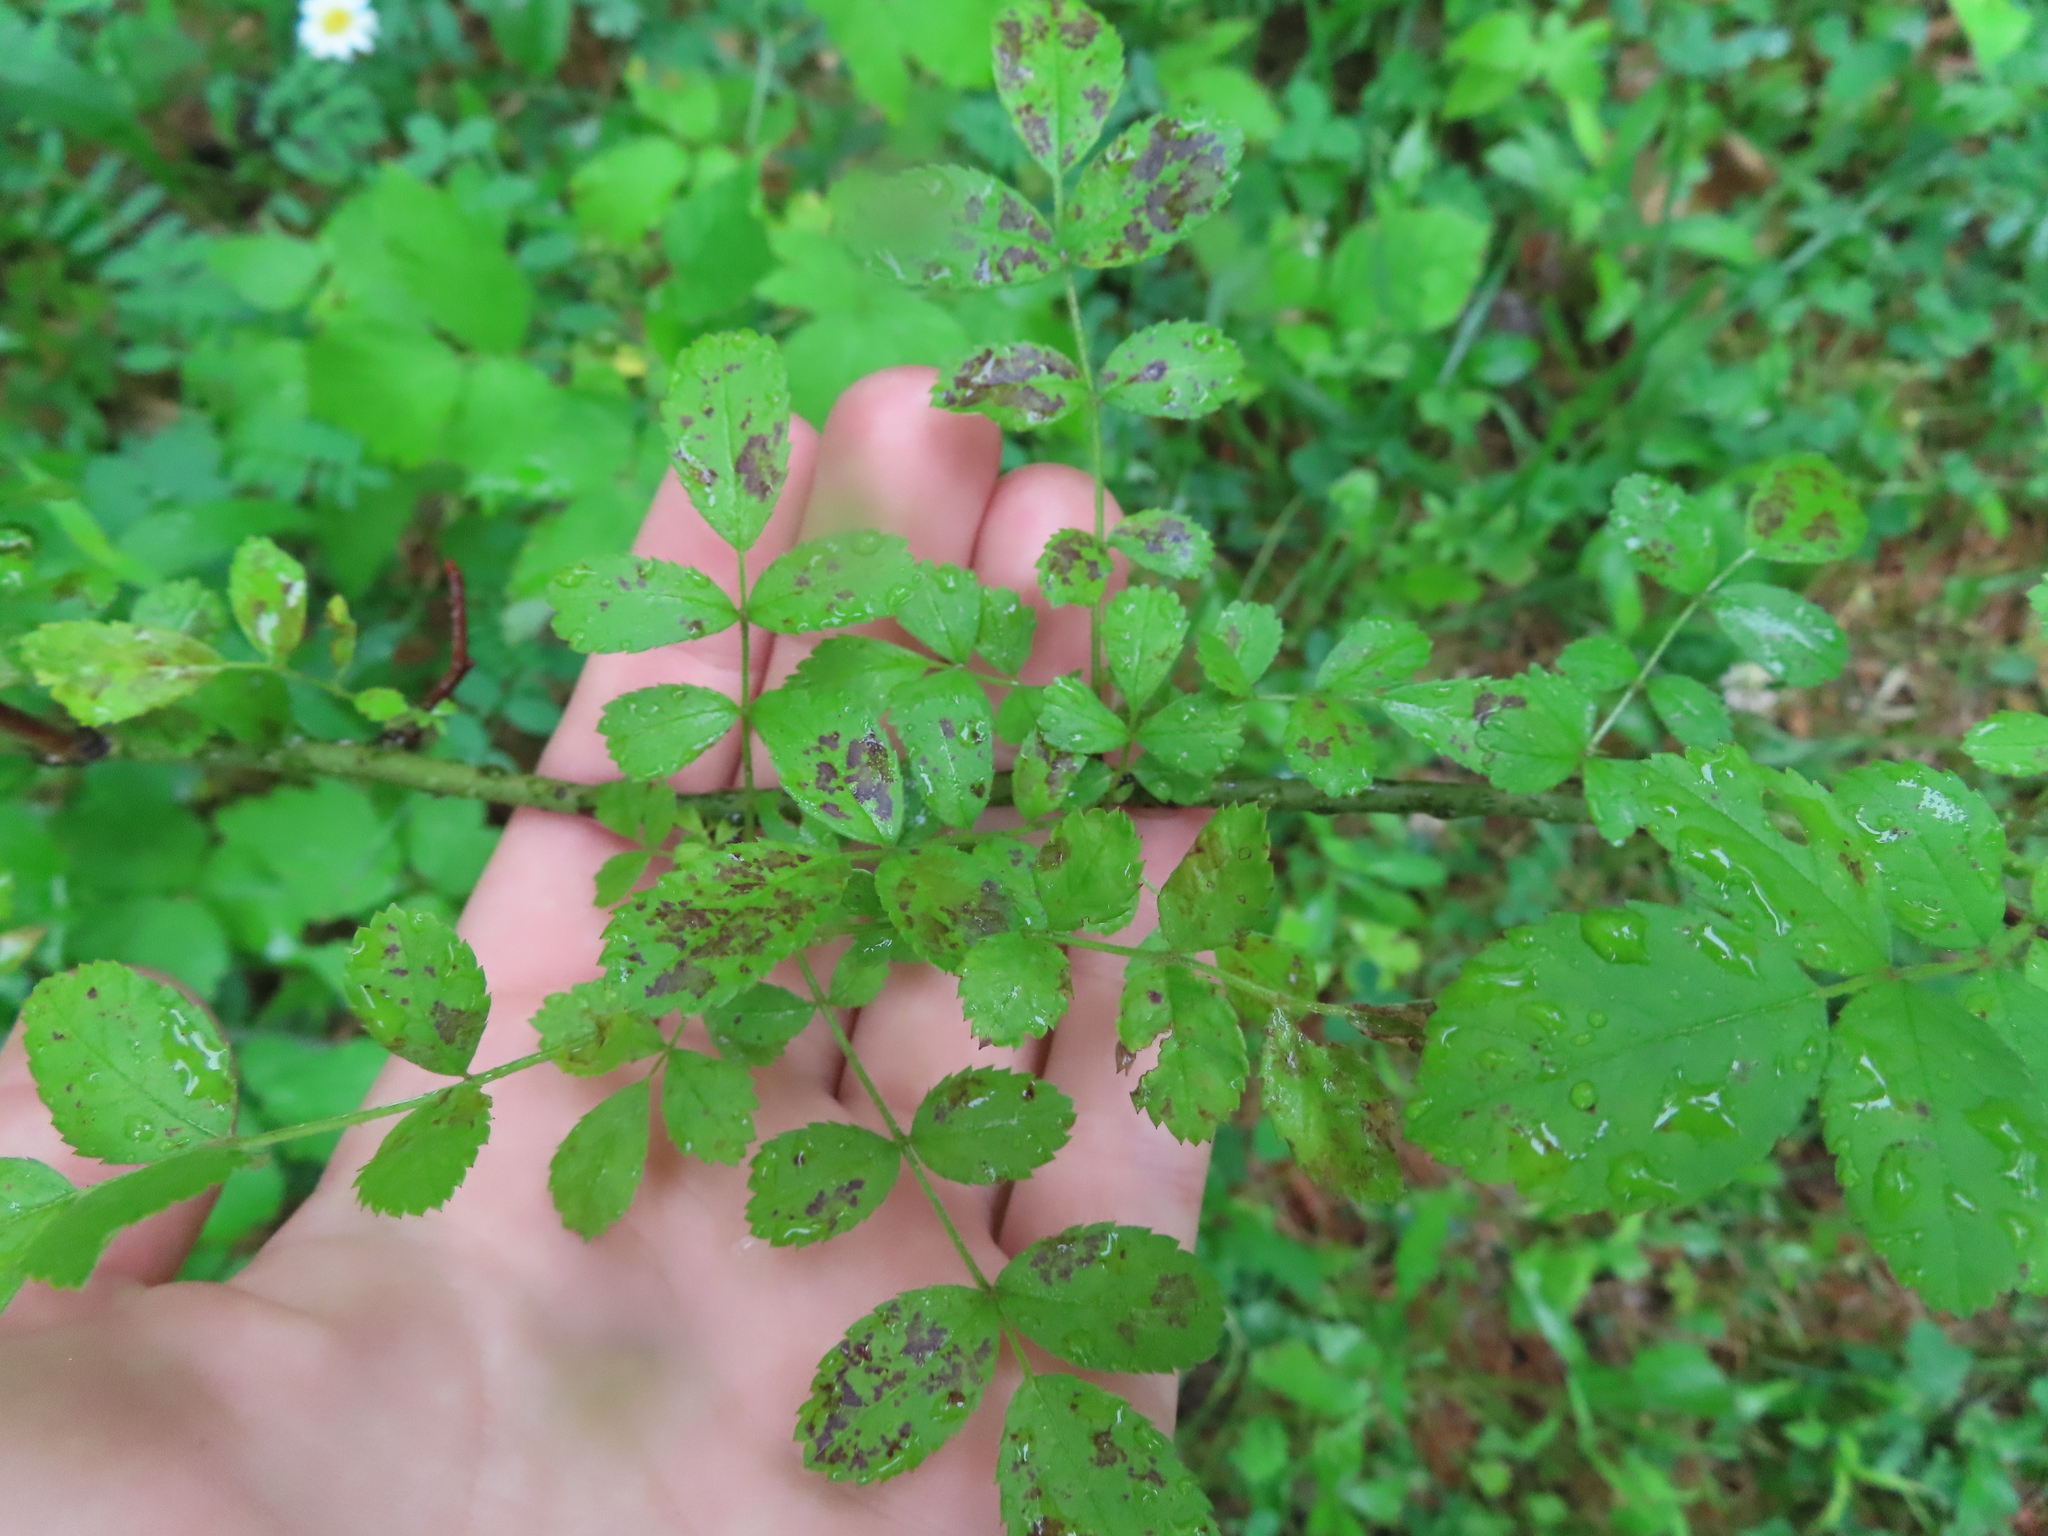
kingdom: Plantae
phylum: Tracheophyta
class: Magnoliopsida
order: Rosales
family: Rosaceae
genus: Rosa
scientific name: Rosa multiflora
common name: Multiflora rose
